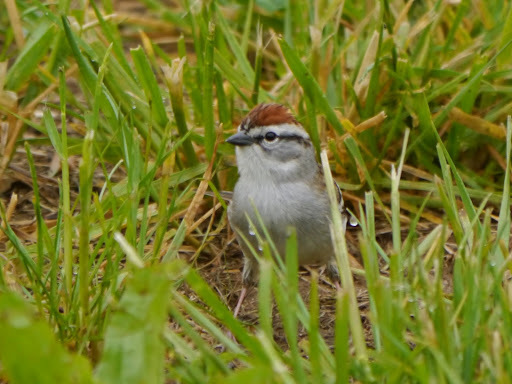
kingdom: Animalia
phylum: Chordata
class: Aves
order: Passeriformes
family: Passerellidae
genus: Spizella
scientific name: Spizella passerina
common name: Chipping sparrow
